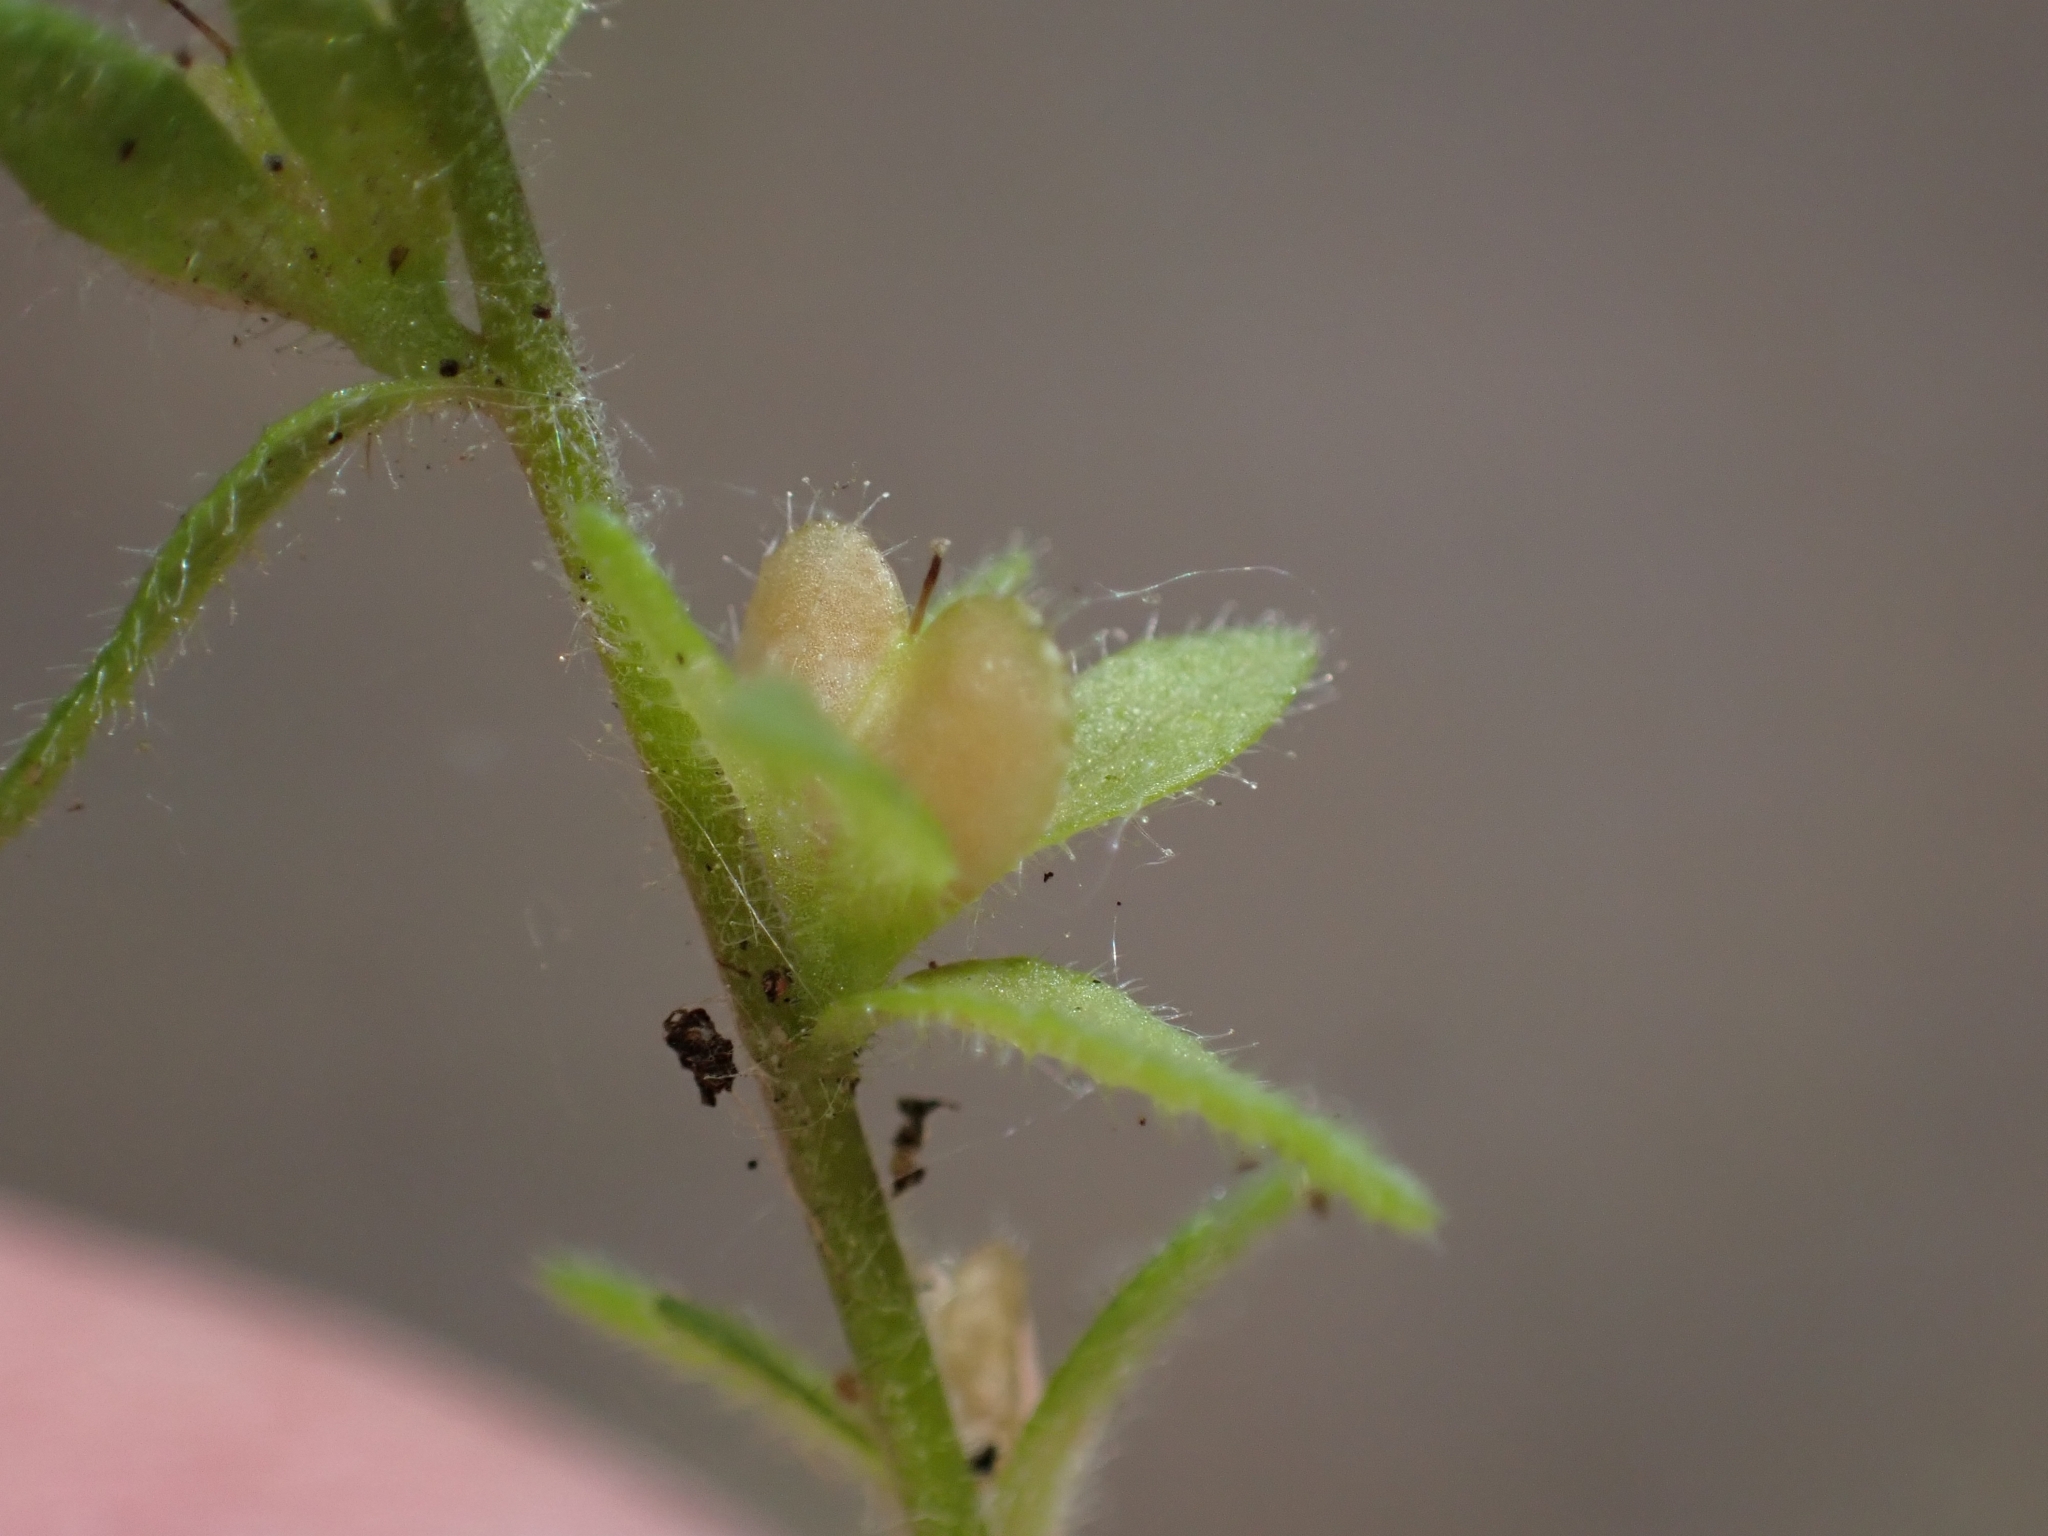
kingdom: Plantae
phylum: Tracheophyta
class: Magnoliopsida
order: Lamiales
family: Plantaginaceae
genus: Veronica
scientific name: Veronica arvensis
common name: Corn speedwell
